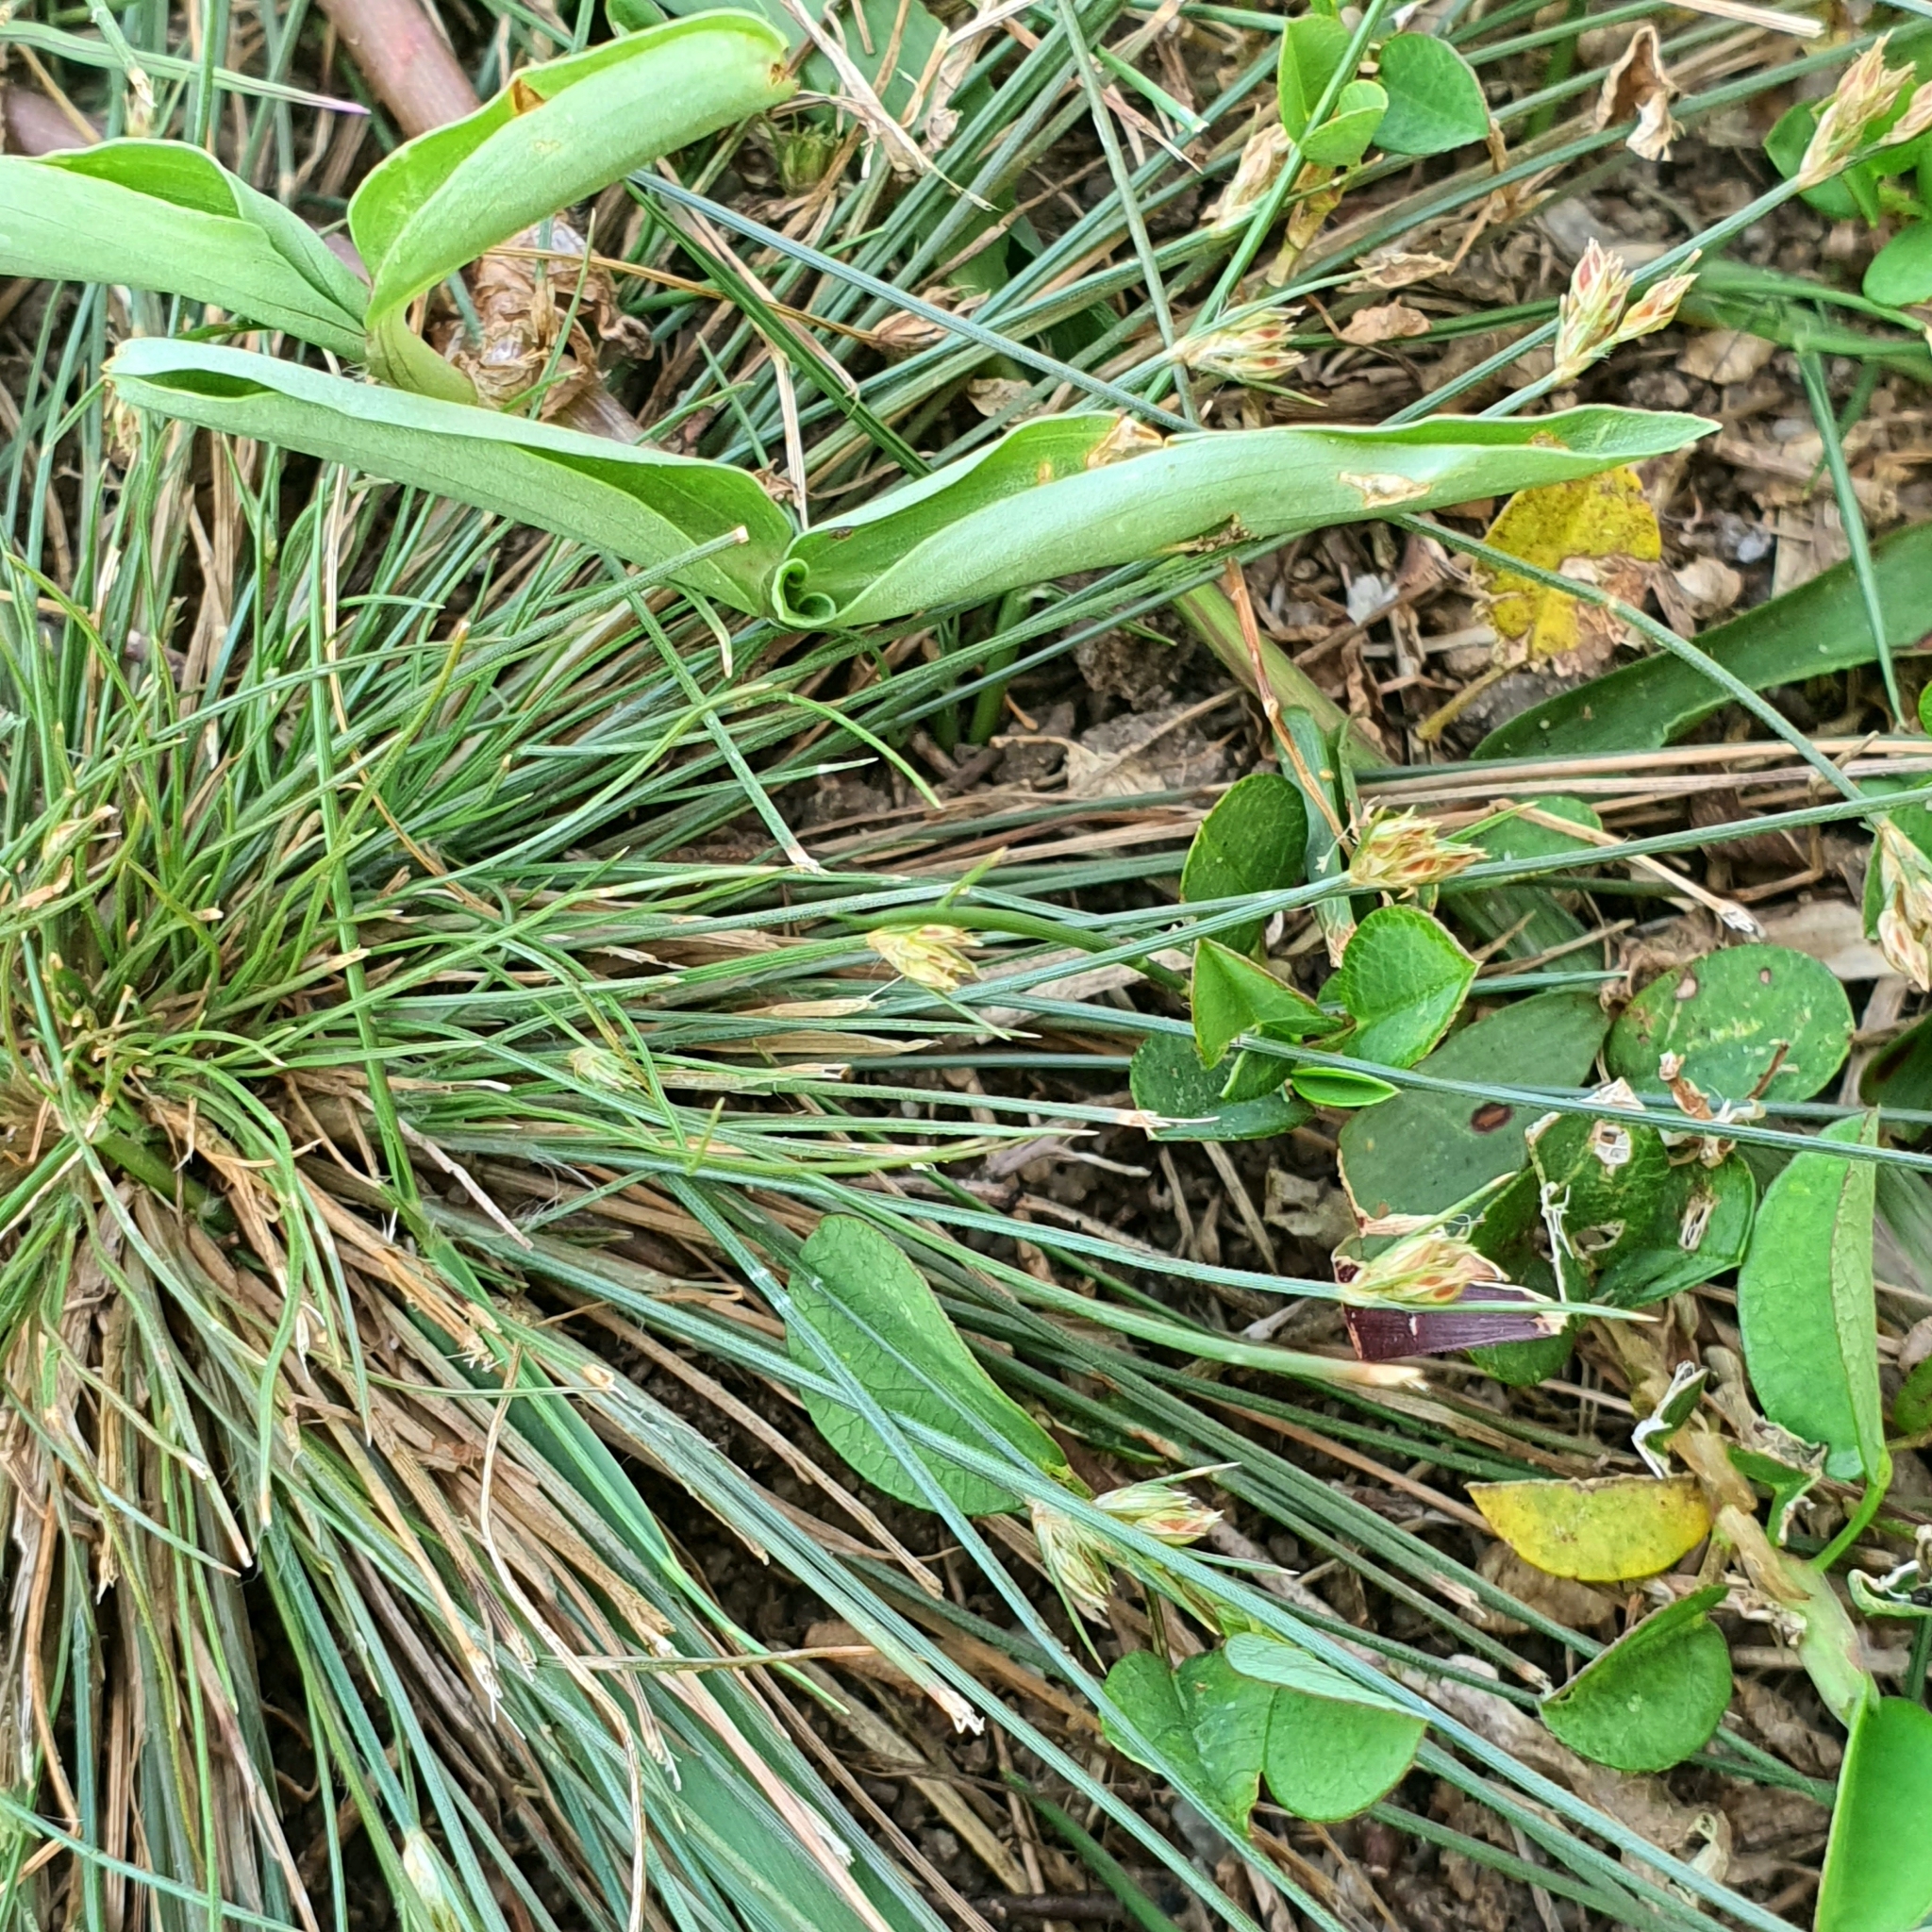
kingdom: Plantae
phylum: Tracheophyta
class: Liliopsida
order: Poales
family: Cyperaceae
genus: Bulbostylis
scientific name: Bulbostylis thouarsii
